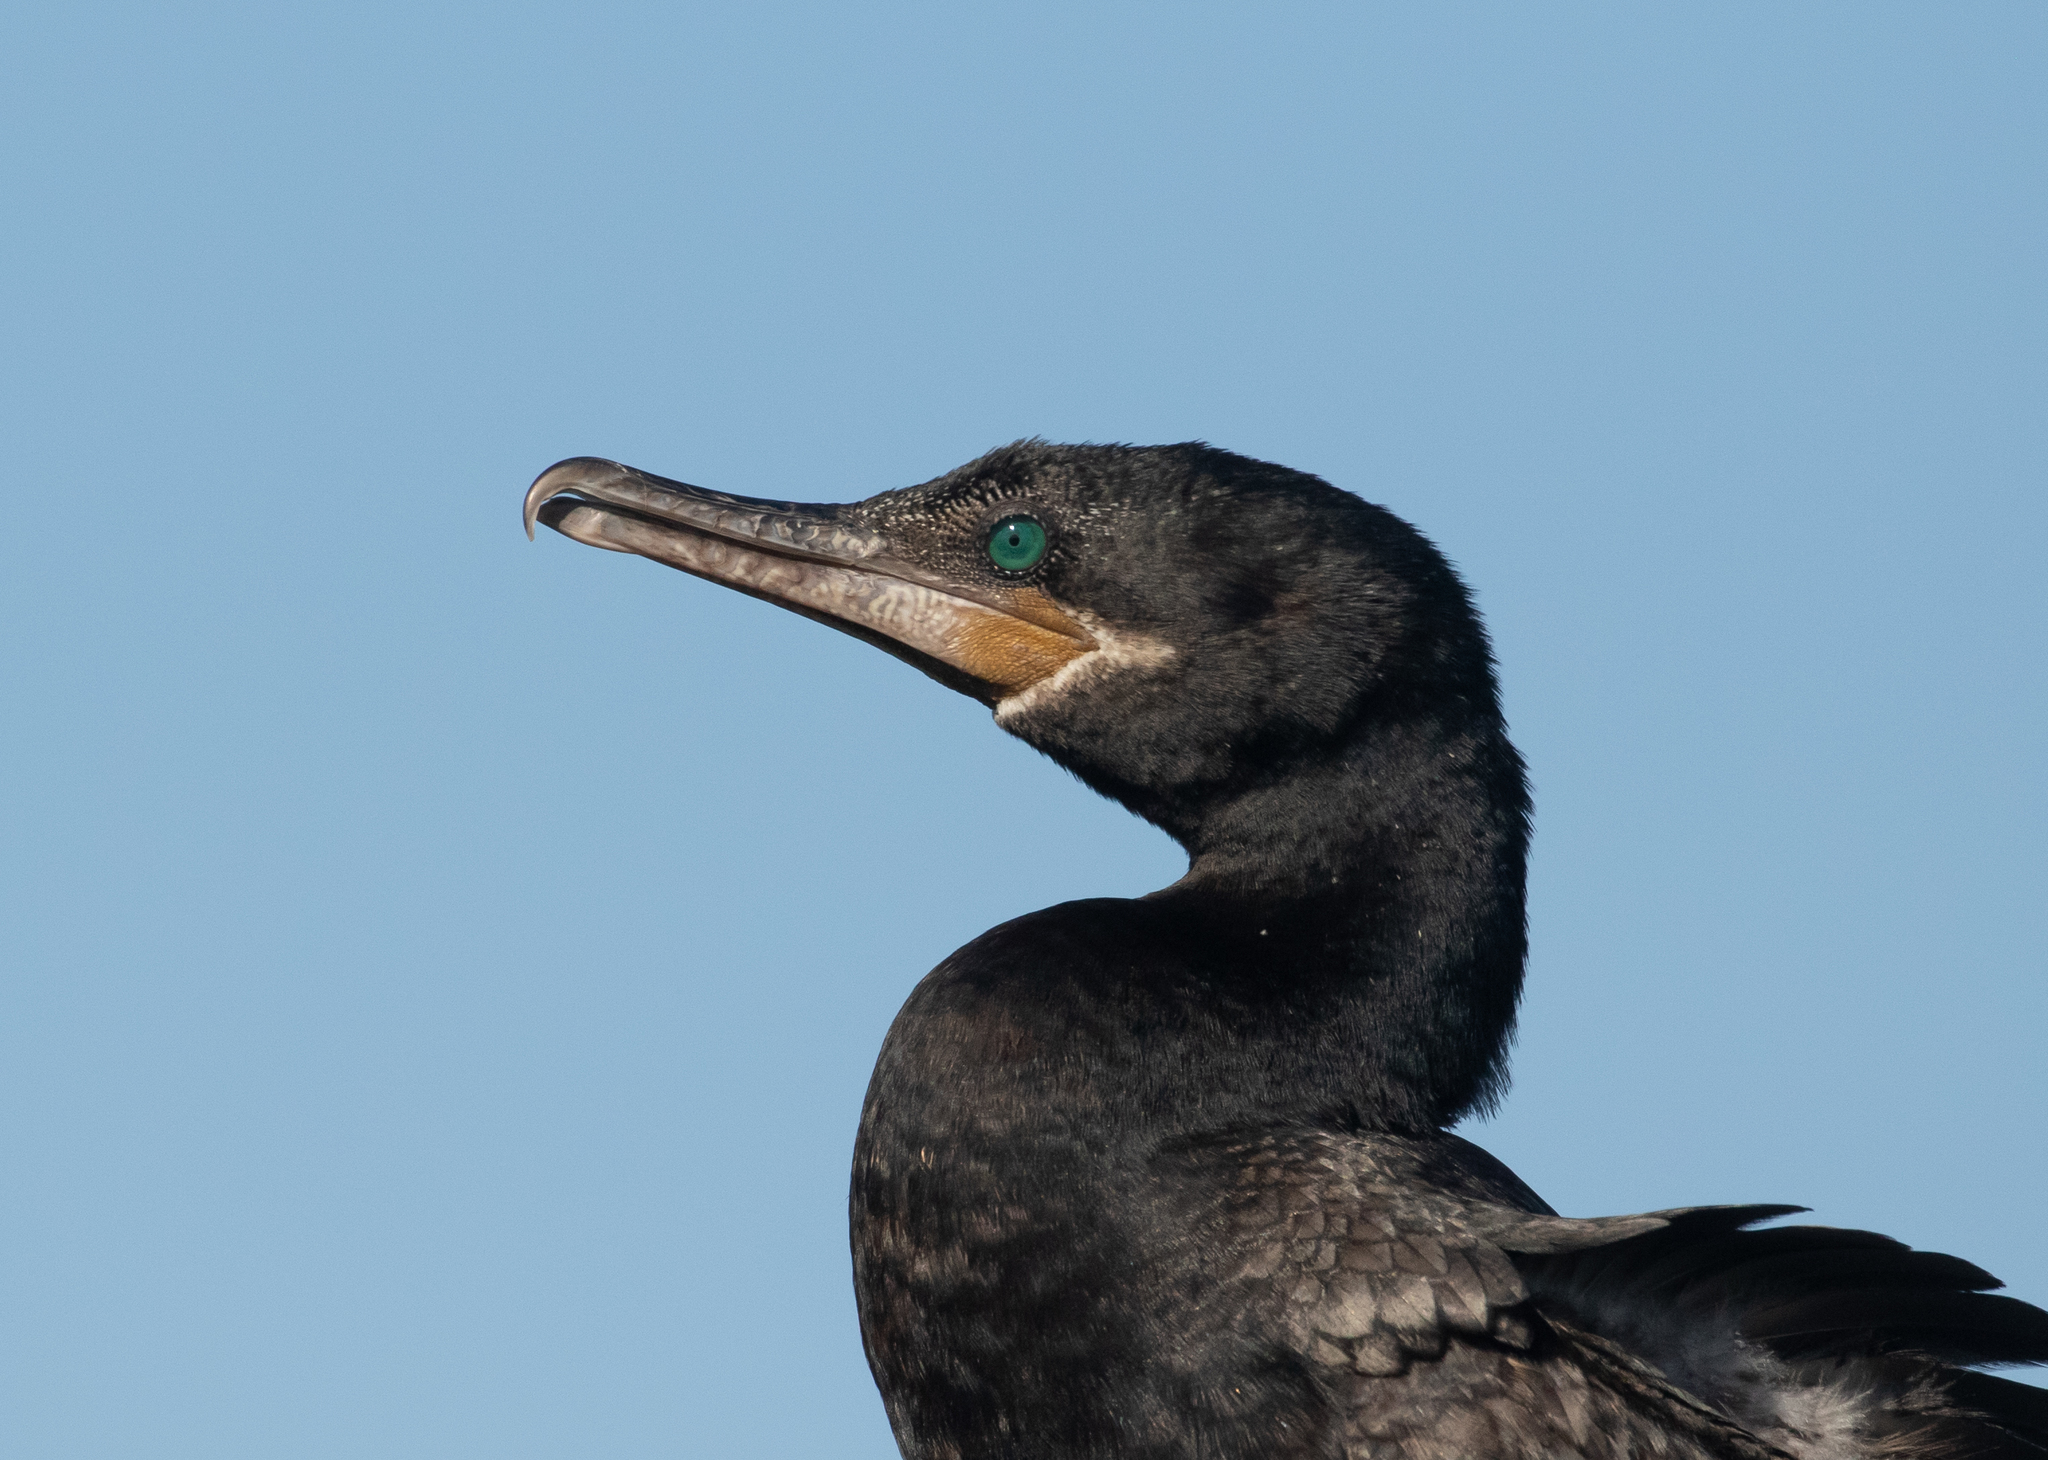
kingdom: Animalia
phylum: Chordata
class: Aves
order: Suliformes
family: Phalacrocoracidae
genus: Phalacrocorax
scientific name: Phalacrocorax brasilianus
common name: Neotropic cormorant
